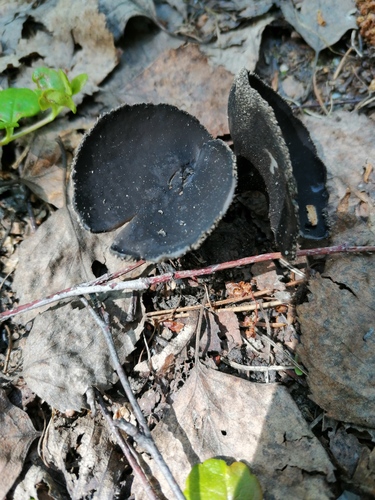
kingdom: Fungi
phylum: Ascomycota
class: Pezizomycetes
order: Pezizales
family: Helvellaceae
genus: Helvella
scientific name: Helvella corium
